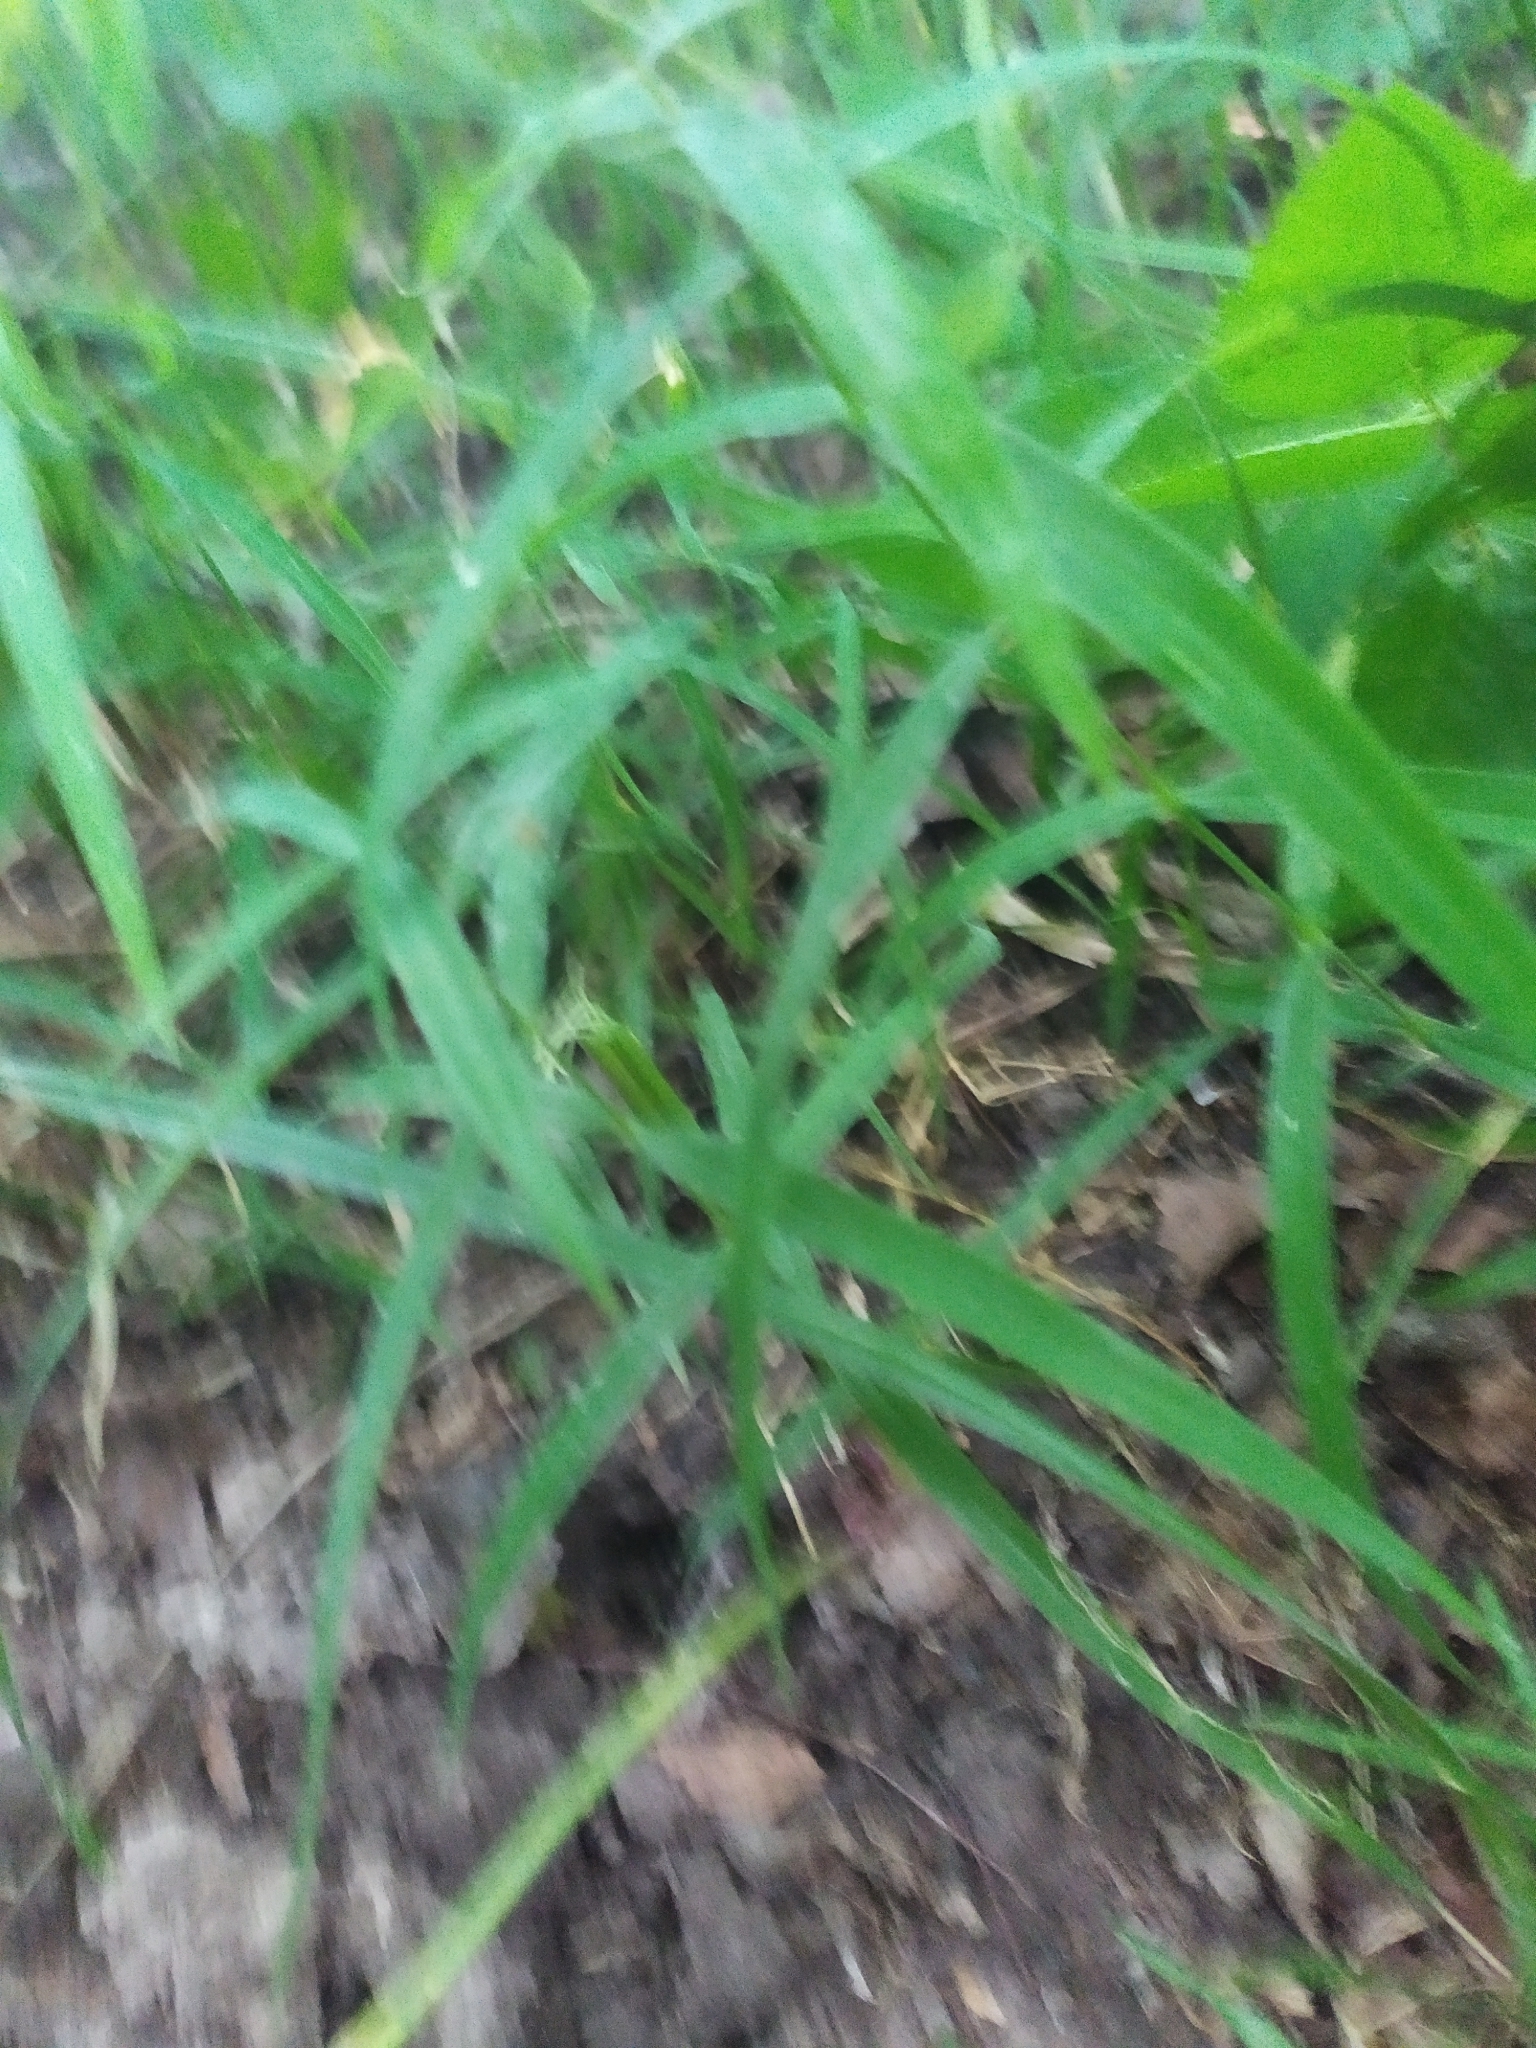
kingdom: Plantae
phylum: Tracheophyta
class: Magnoliopsida
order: Caryophyllales
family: Caryophyllaceae
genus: Rabelera
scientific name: Rabelera holostea
